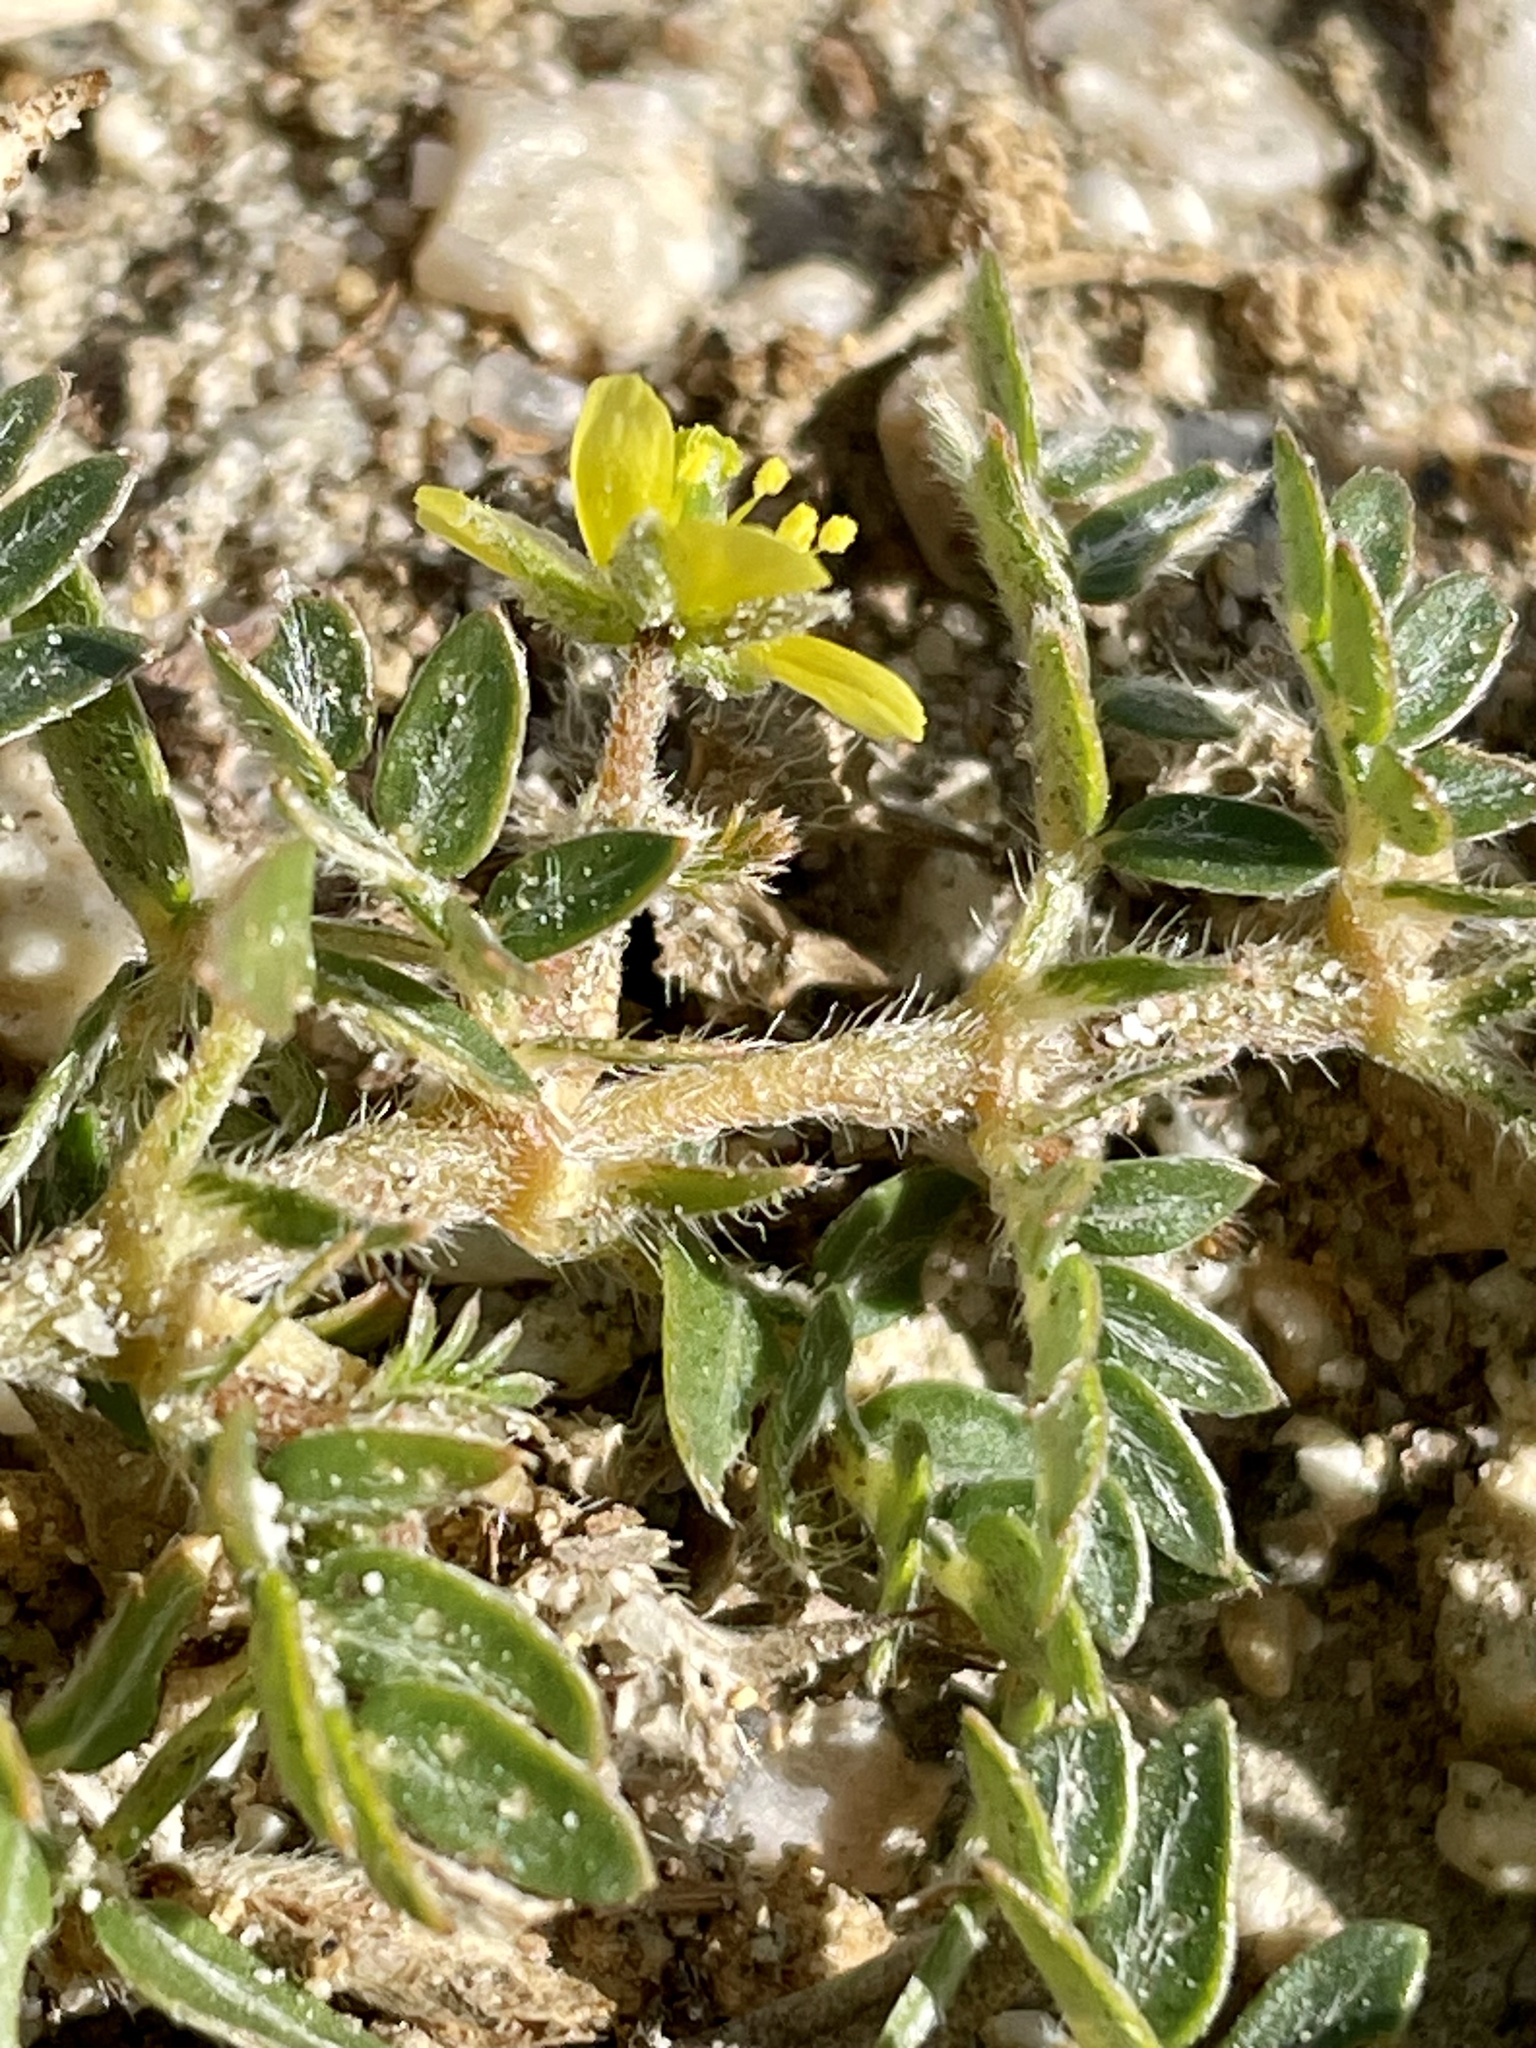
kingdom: Plantae
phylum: Tracheophyta
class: Magnoliopsida
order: Zygophyllales
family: Zygophyllaceae
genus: Tribulus
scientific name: Tribulus terrestris
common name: Puncturevine
